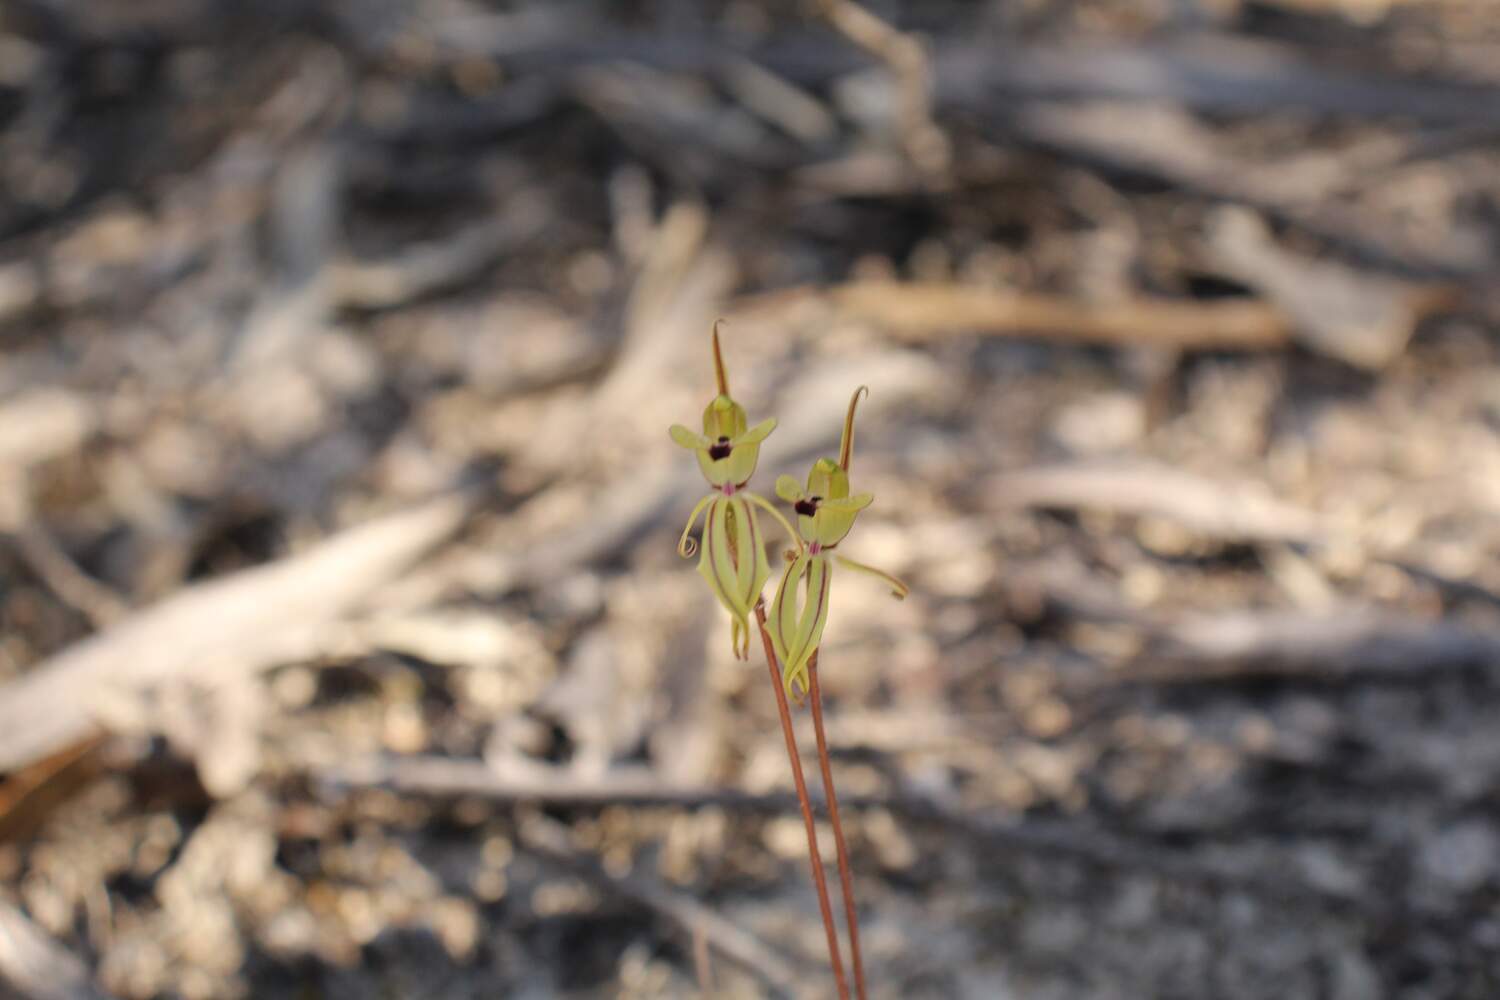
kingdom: Plantae
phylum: Tracheophyta
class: Liliopsida
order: Asparagales
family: Orchidaceae
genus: Caladenia
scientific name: Caladenia brevisura
